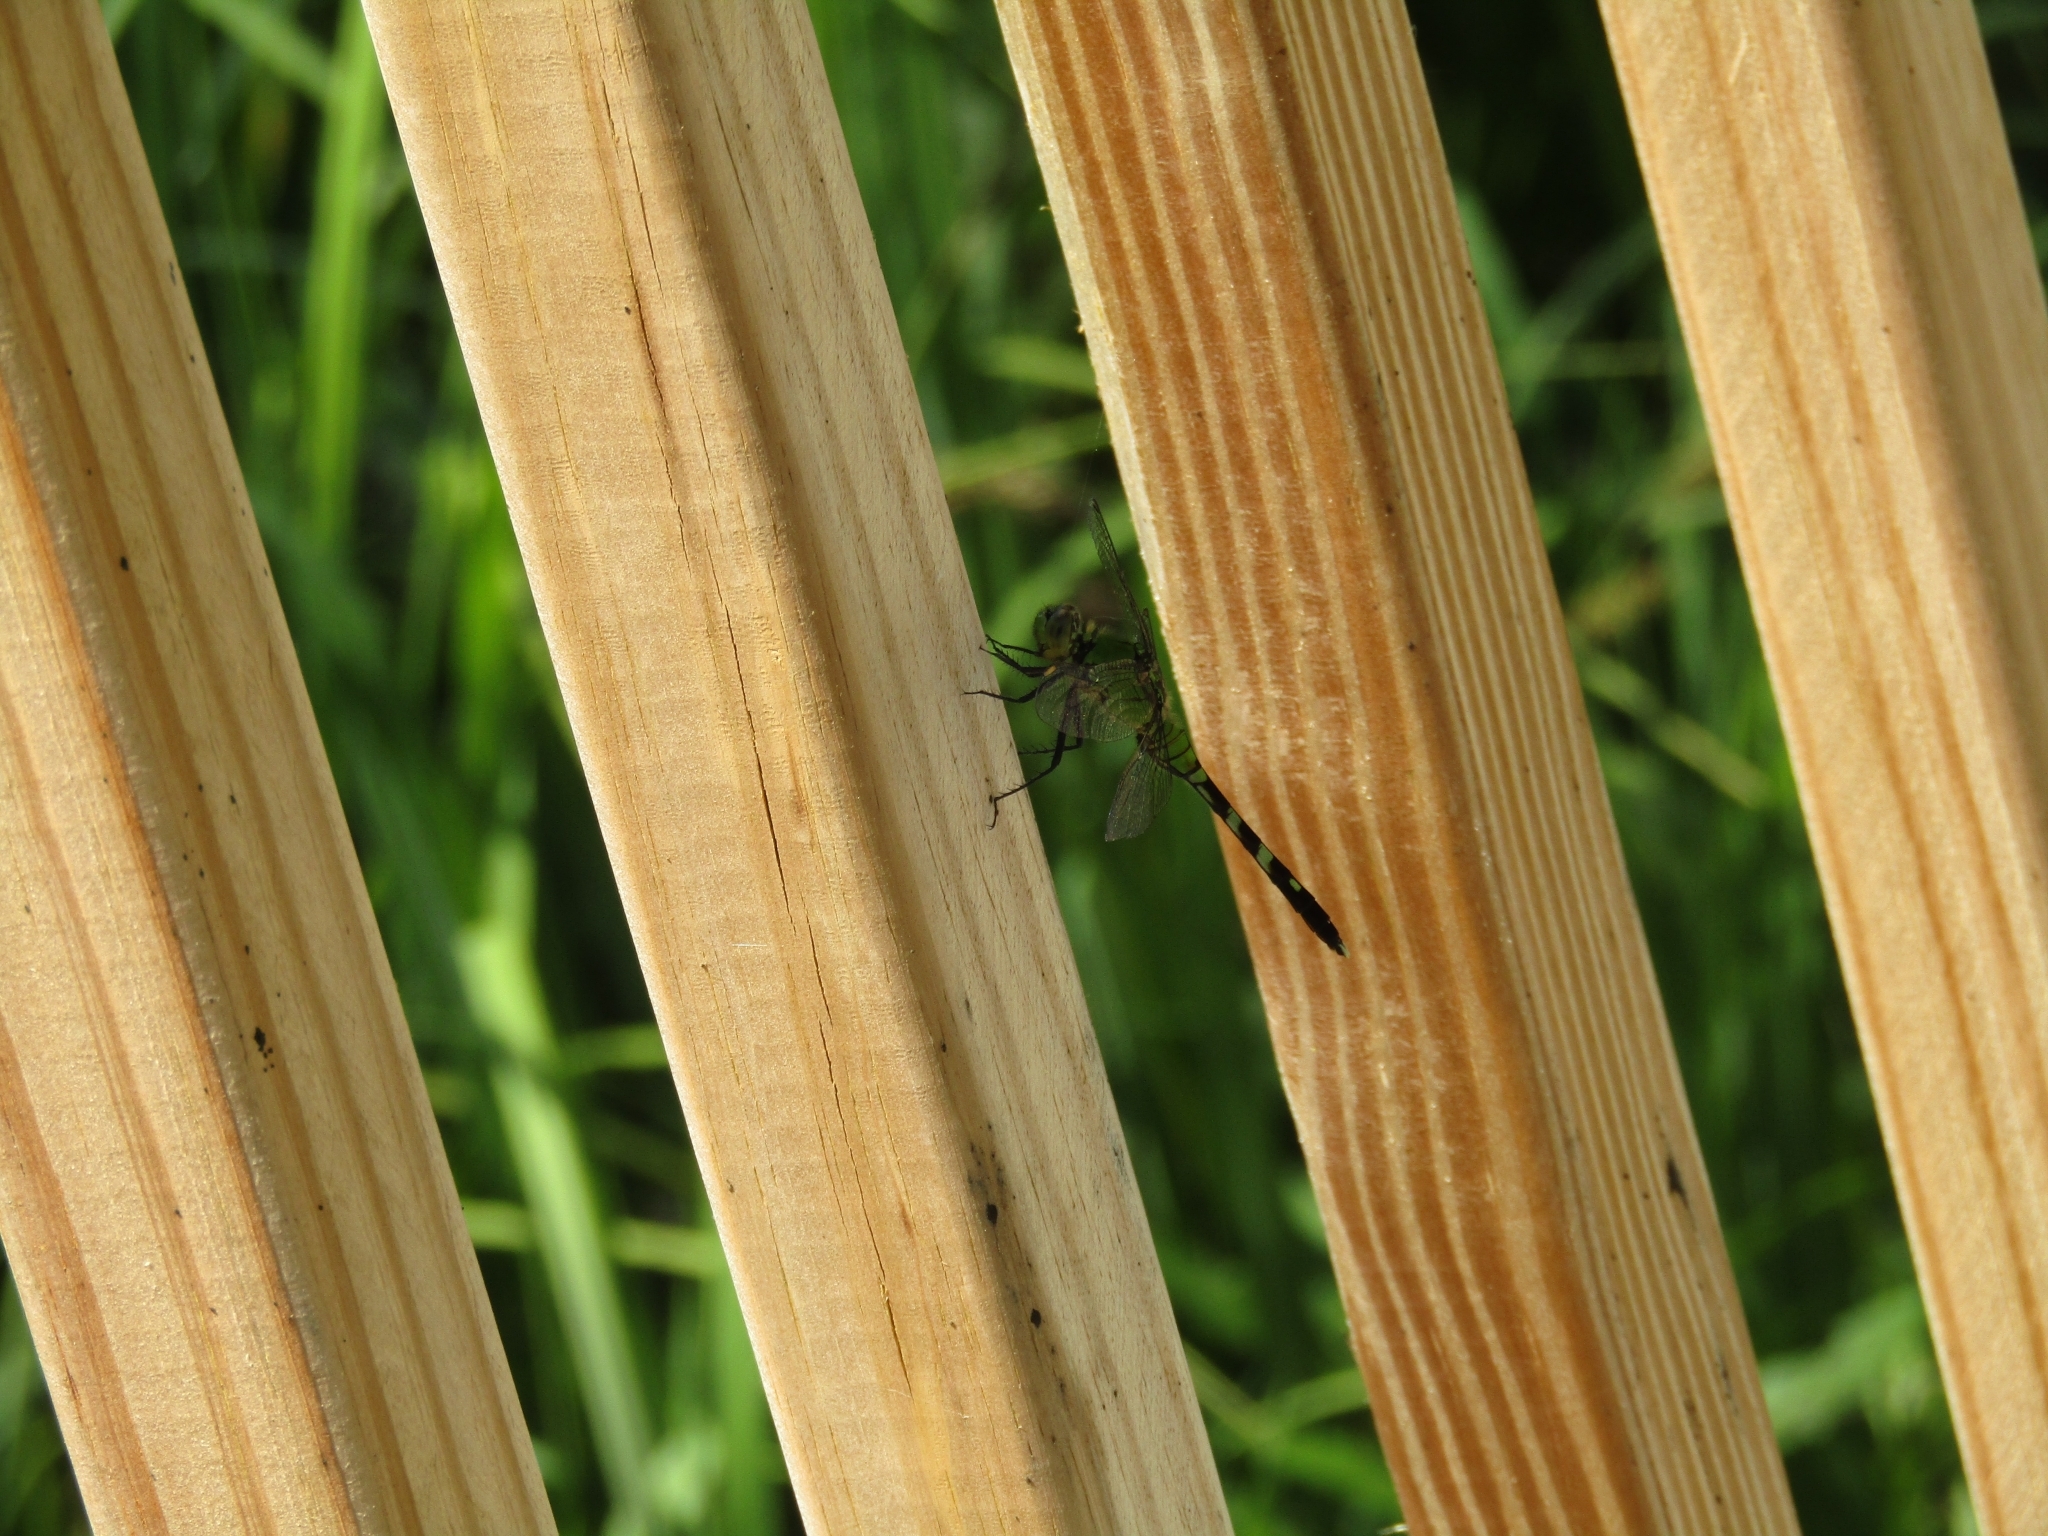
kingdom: Animalia
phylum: Arthropoda
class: Insecta
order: Odonata
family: Libellulidae
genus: Erythemis
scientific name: Erythemis simplicicollis
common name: Eastern pondhawk
